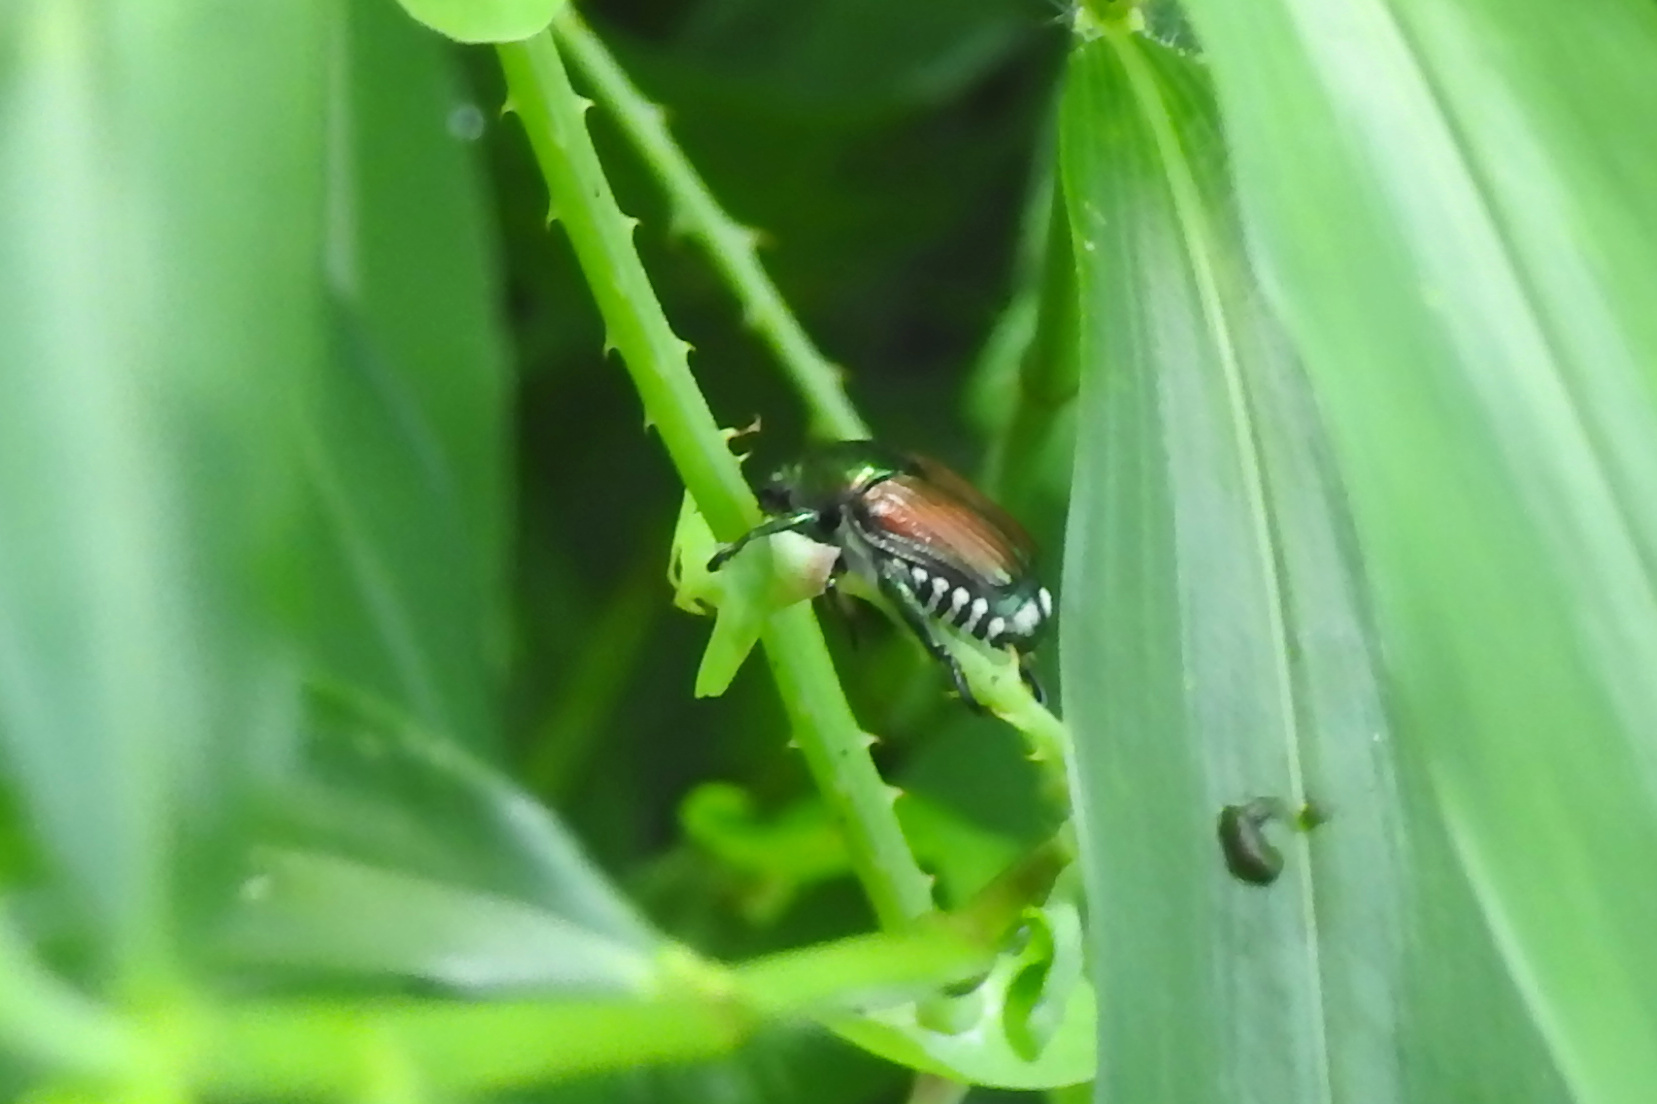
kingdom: Animalia
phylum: Arthropoda
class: Insecta
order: Coleoptera
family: Scarabaeidae
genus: Popillia
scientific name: Popillia japonica
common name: Japanese beetle
